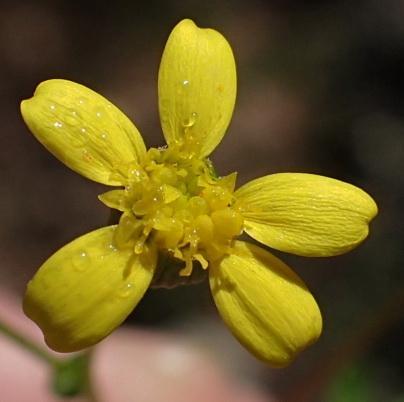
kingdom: Plantae
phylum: Tracheophyta
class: Magnoliopsida
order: Asterales
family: Asteraceae
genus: Cineraria
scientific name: Cineraria platycarpa
